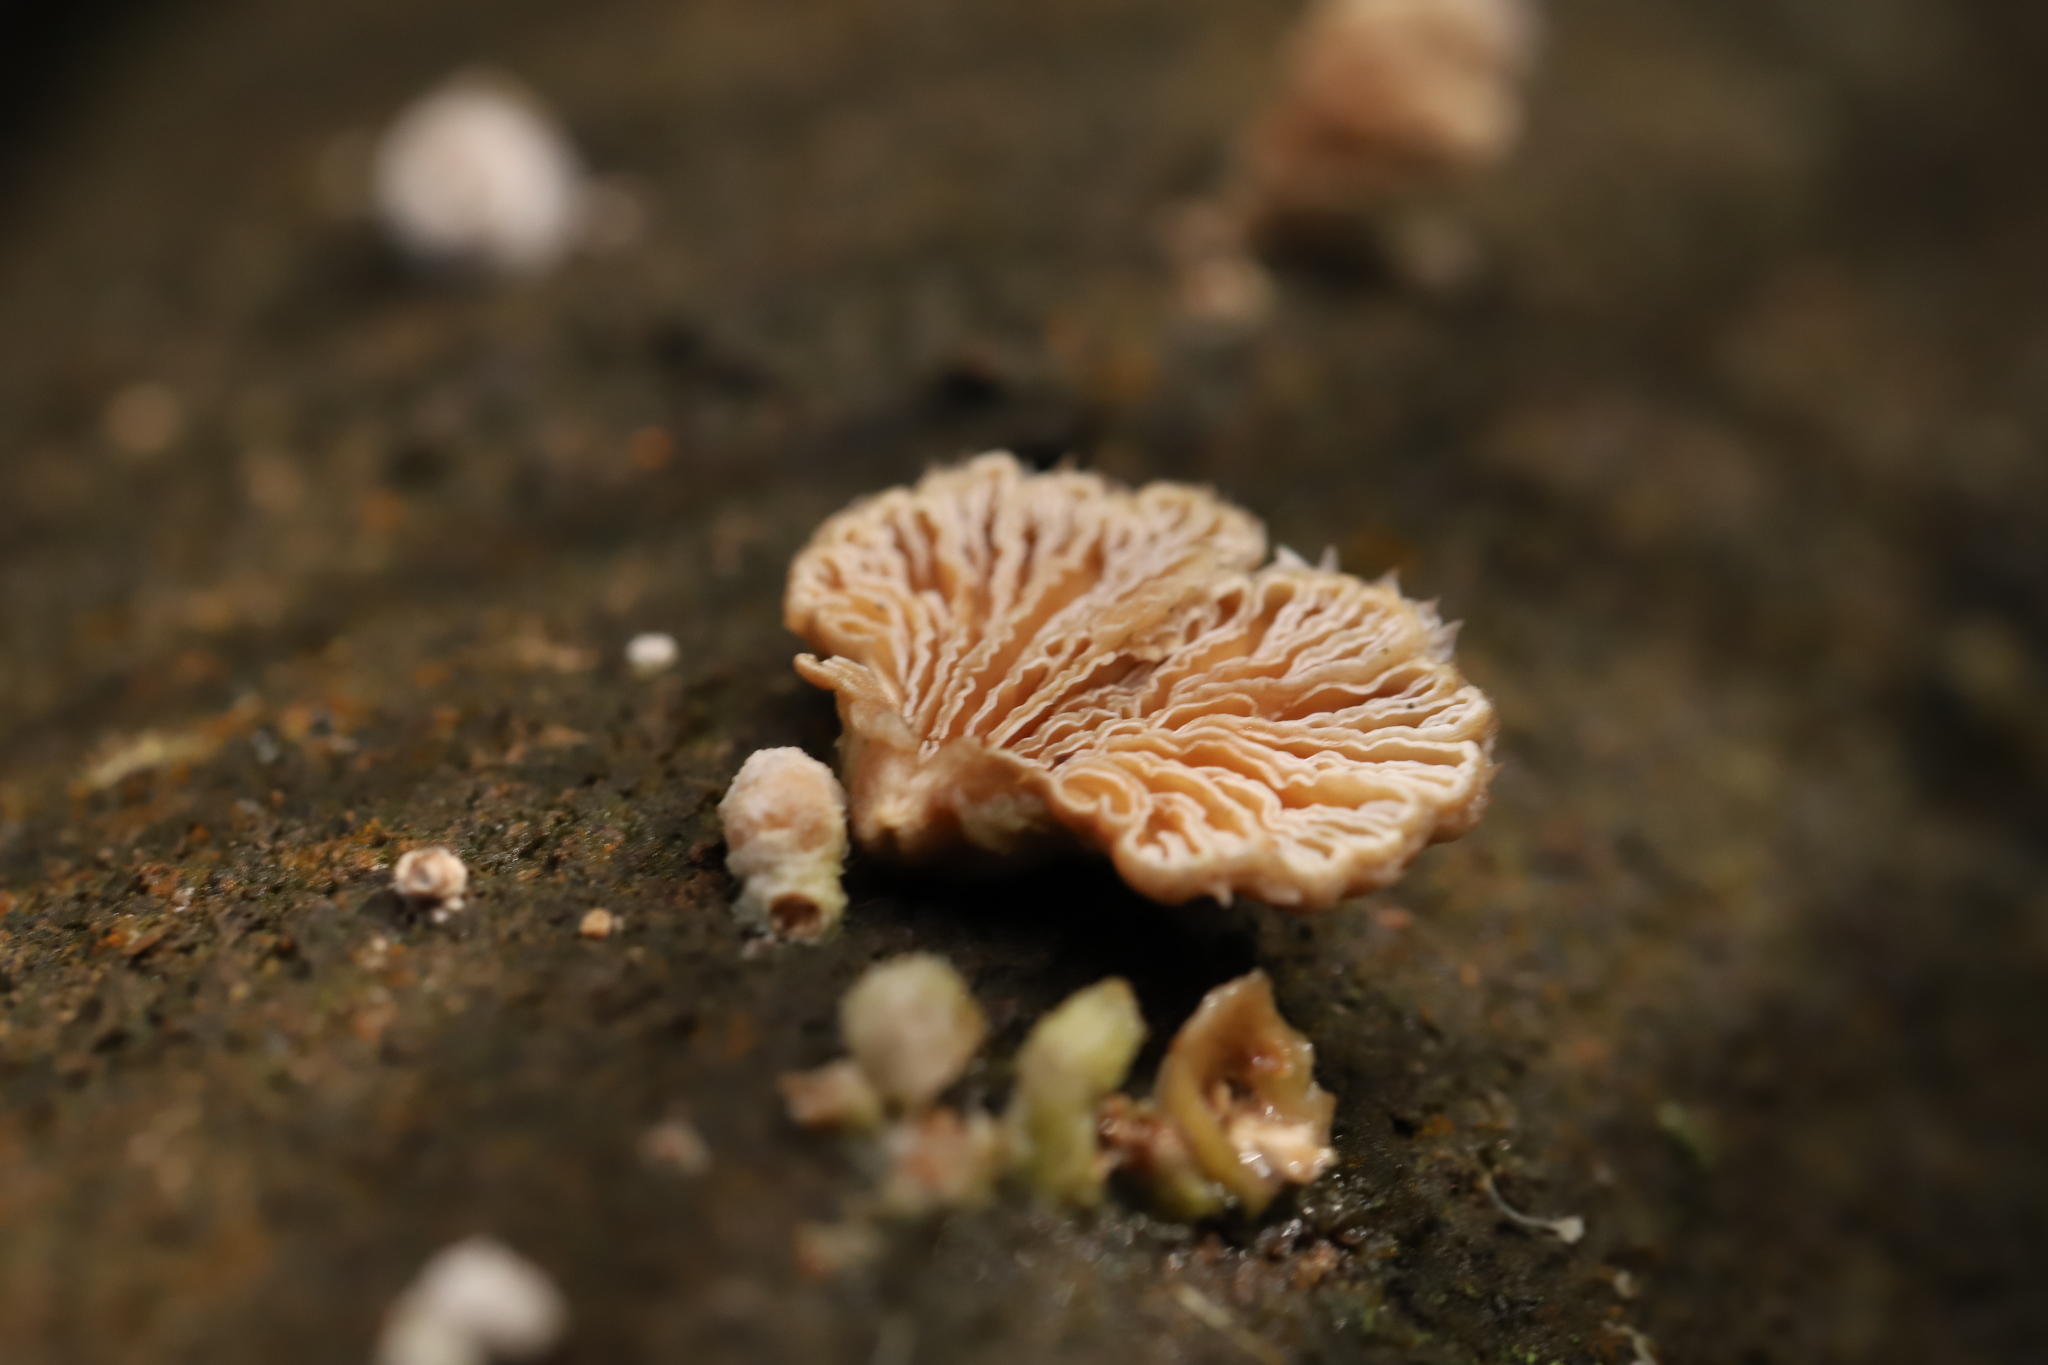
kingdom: Fungi
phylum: Basidiomycota
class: Agaricomycetes
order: Agaricales
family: Schizophyllaceae
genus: Schizophyllum
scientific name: Schizophyllum commune
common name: Common porecrust
